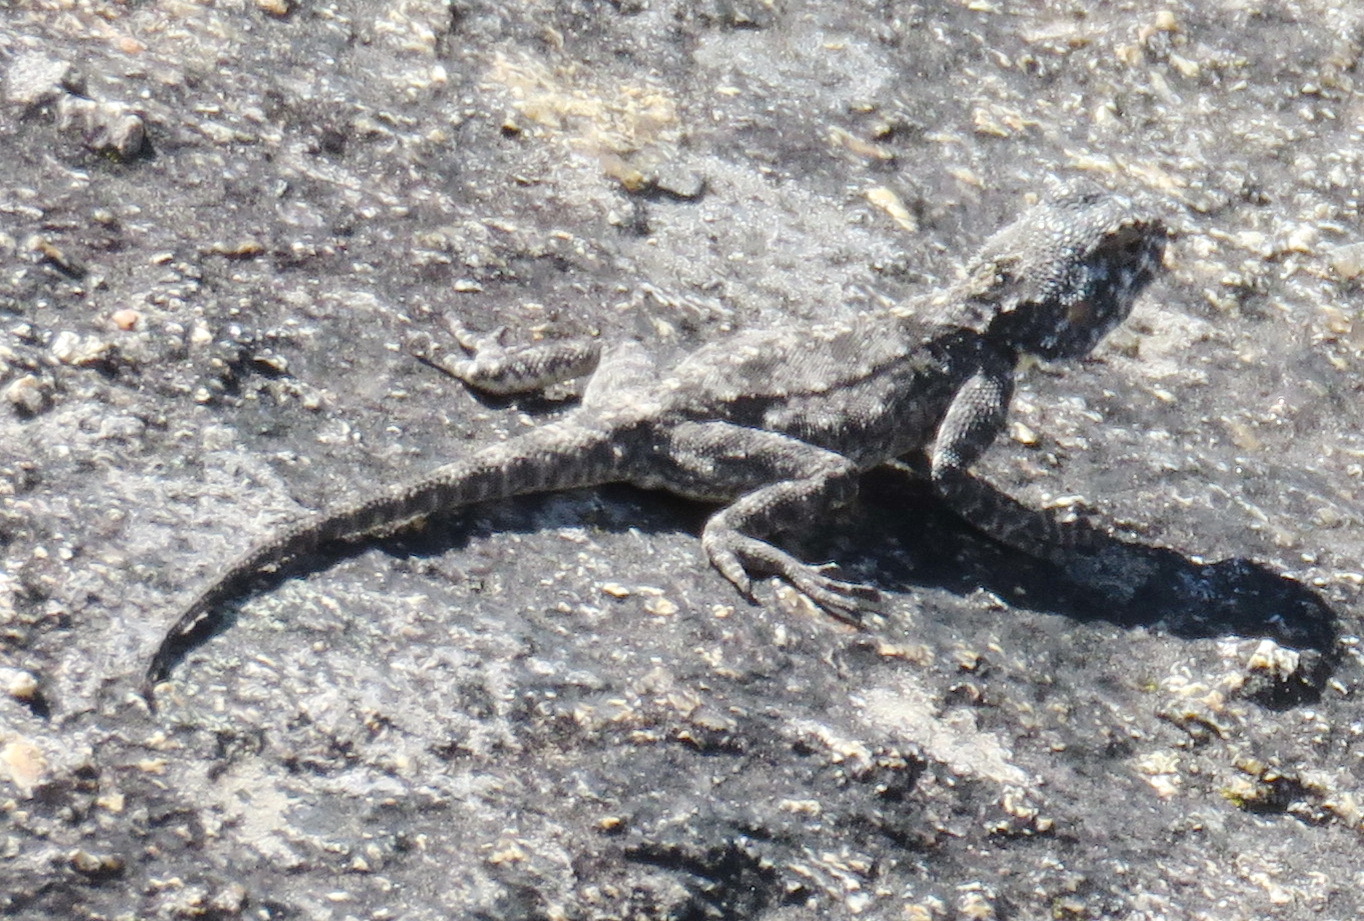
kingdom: Animalia
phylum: Chordata
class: Squamata
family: Agamidae
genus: Agama
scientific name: Agama atra
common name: Southern african rock agama
